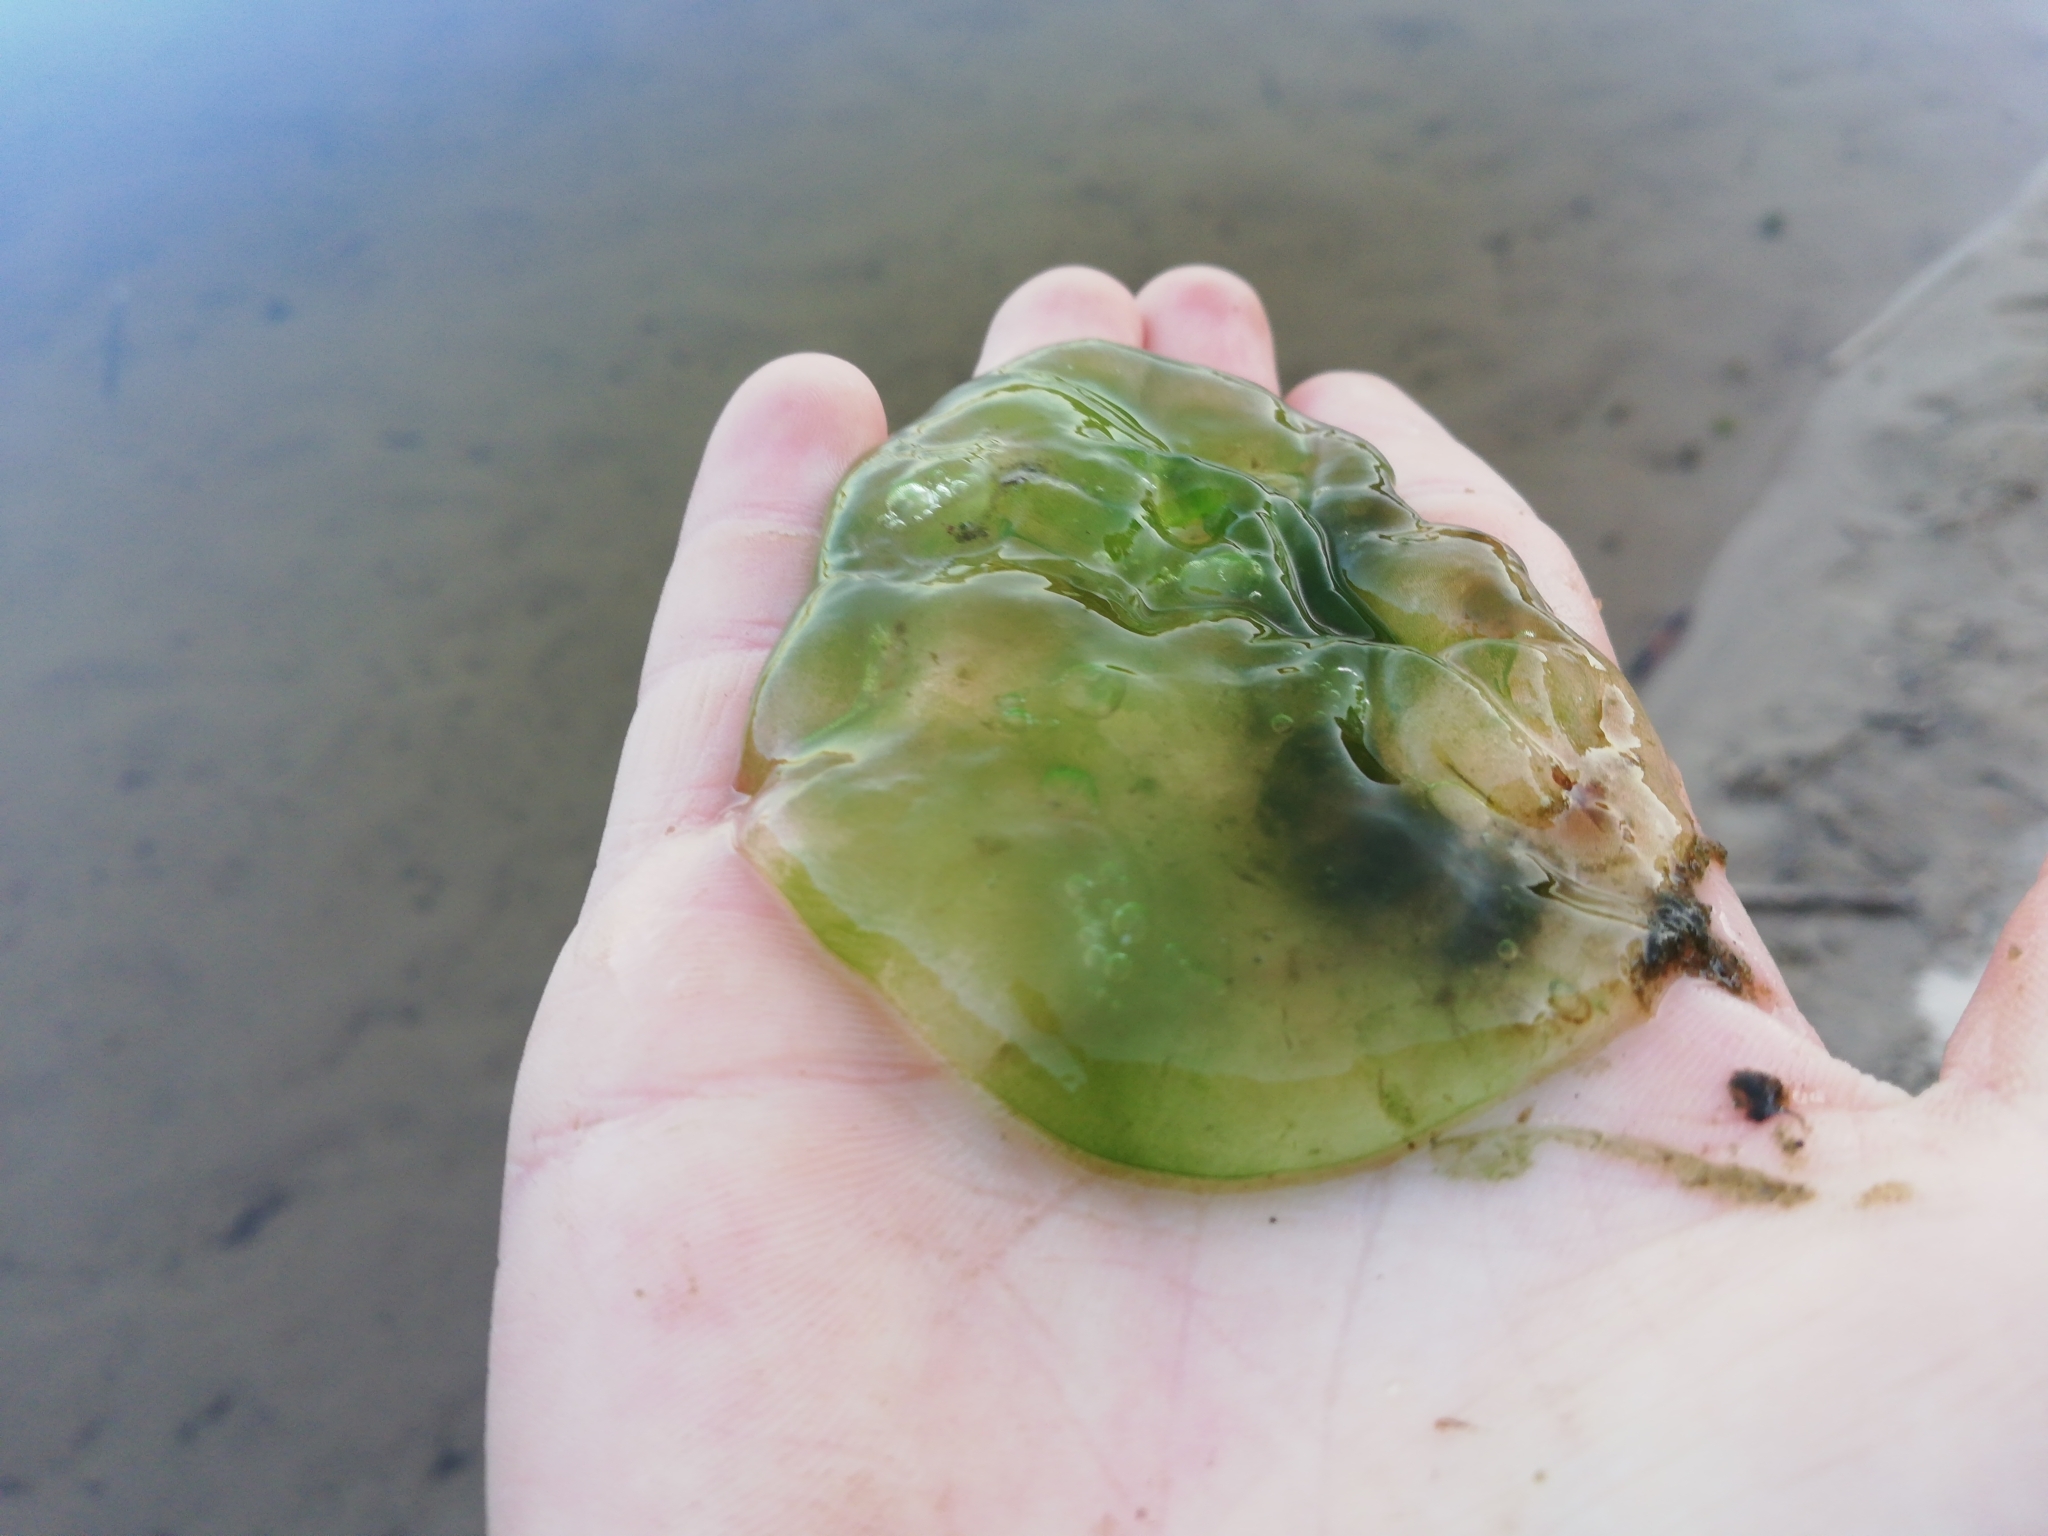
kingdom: Chromista
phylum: Ciliophora
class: Oligohymenophorea
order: Peritrichida
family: Ophrydiidae
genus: Ophrydium
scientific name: Ophrydium
